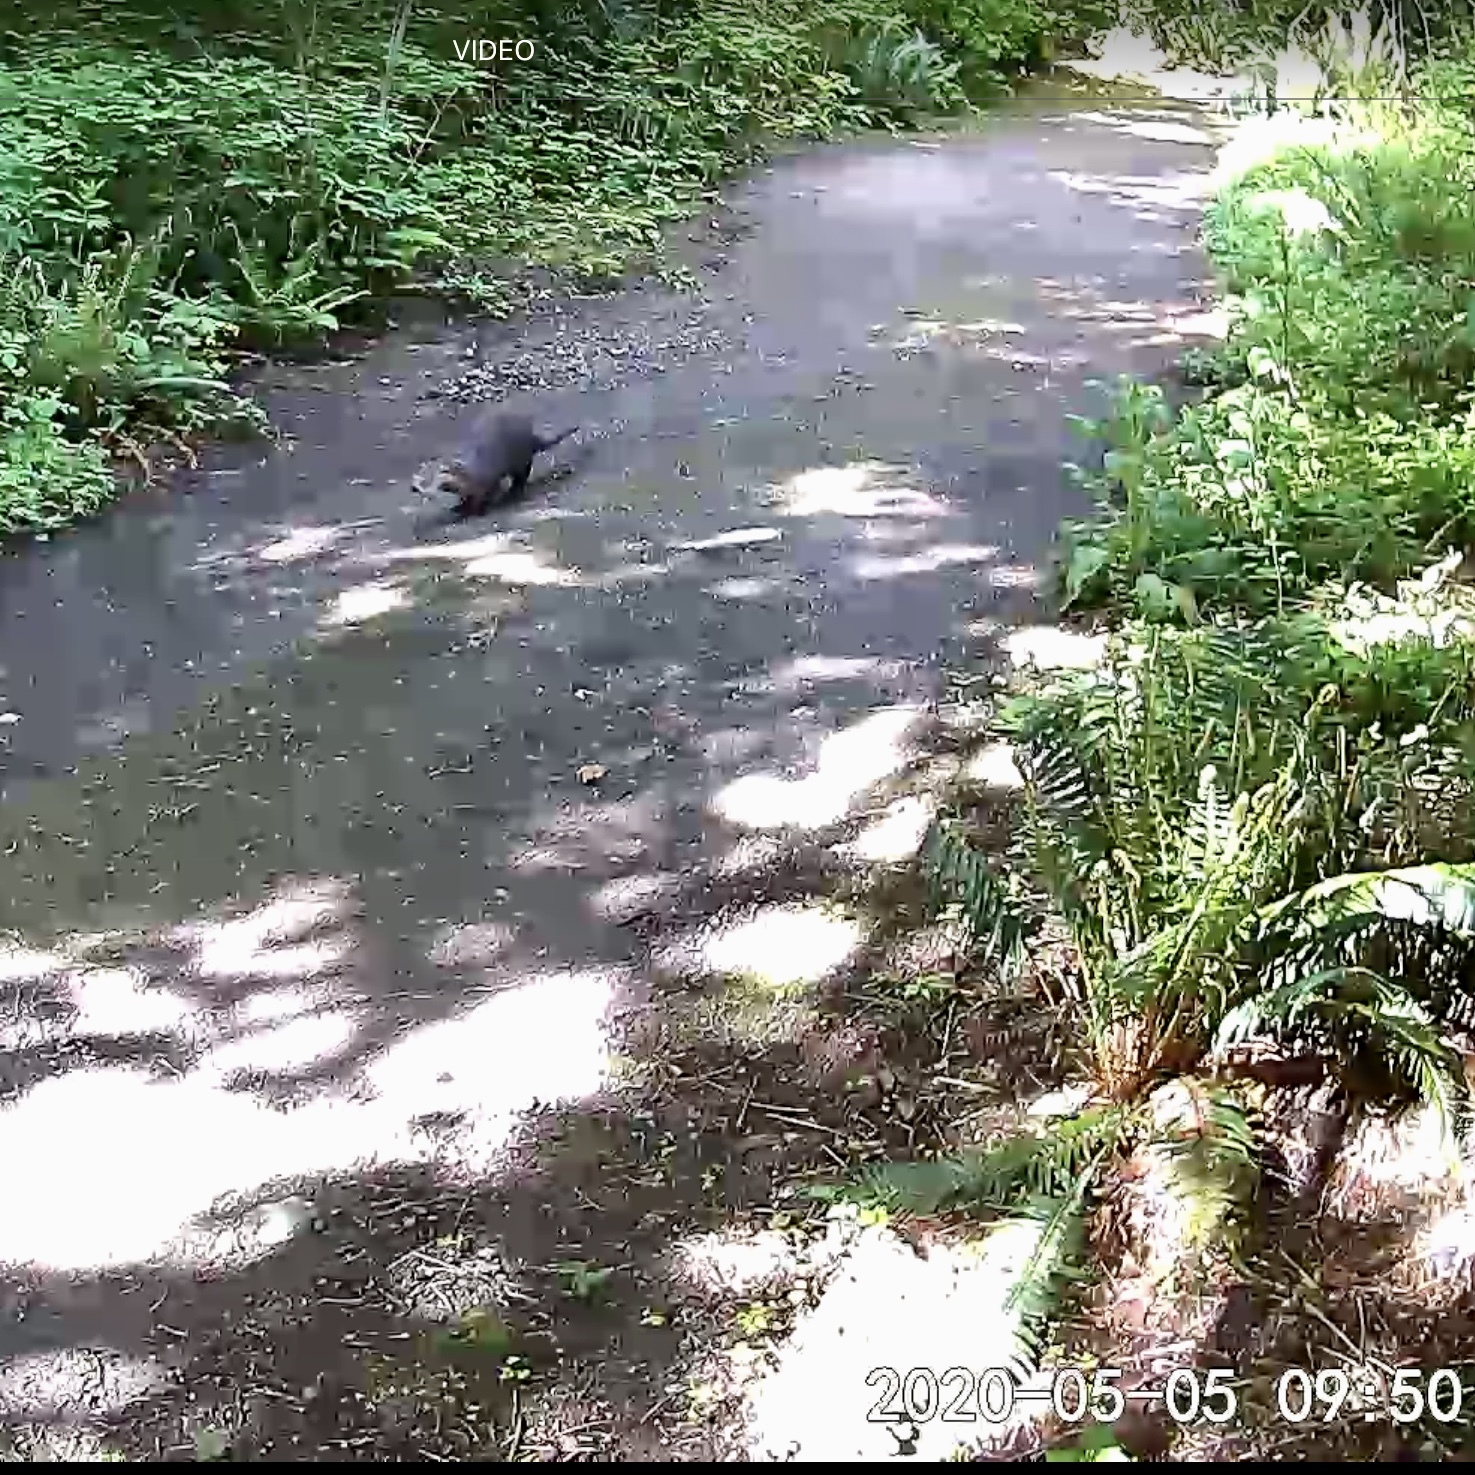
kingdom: Animalia
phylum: Chordata
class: Mammalia
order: Carnivora
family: Mustelidae
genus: Lontra
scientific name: Lontra canadensis
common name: North american river otter
